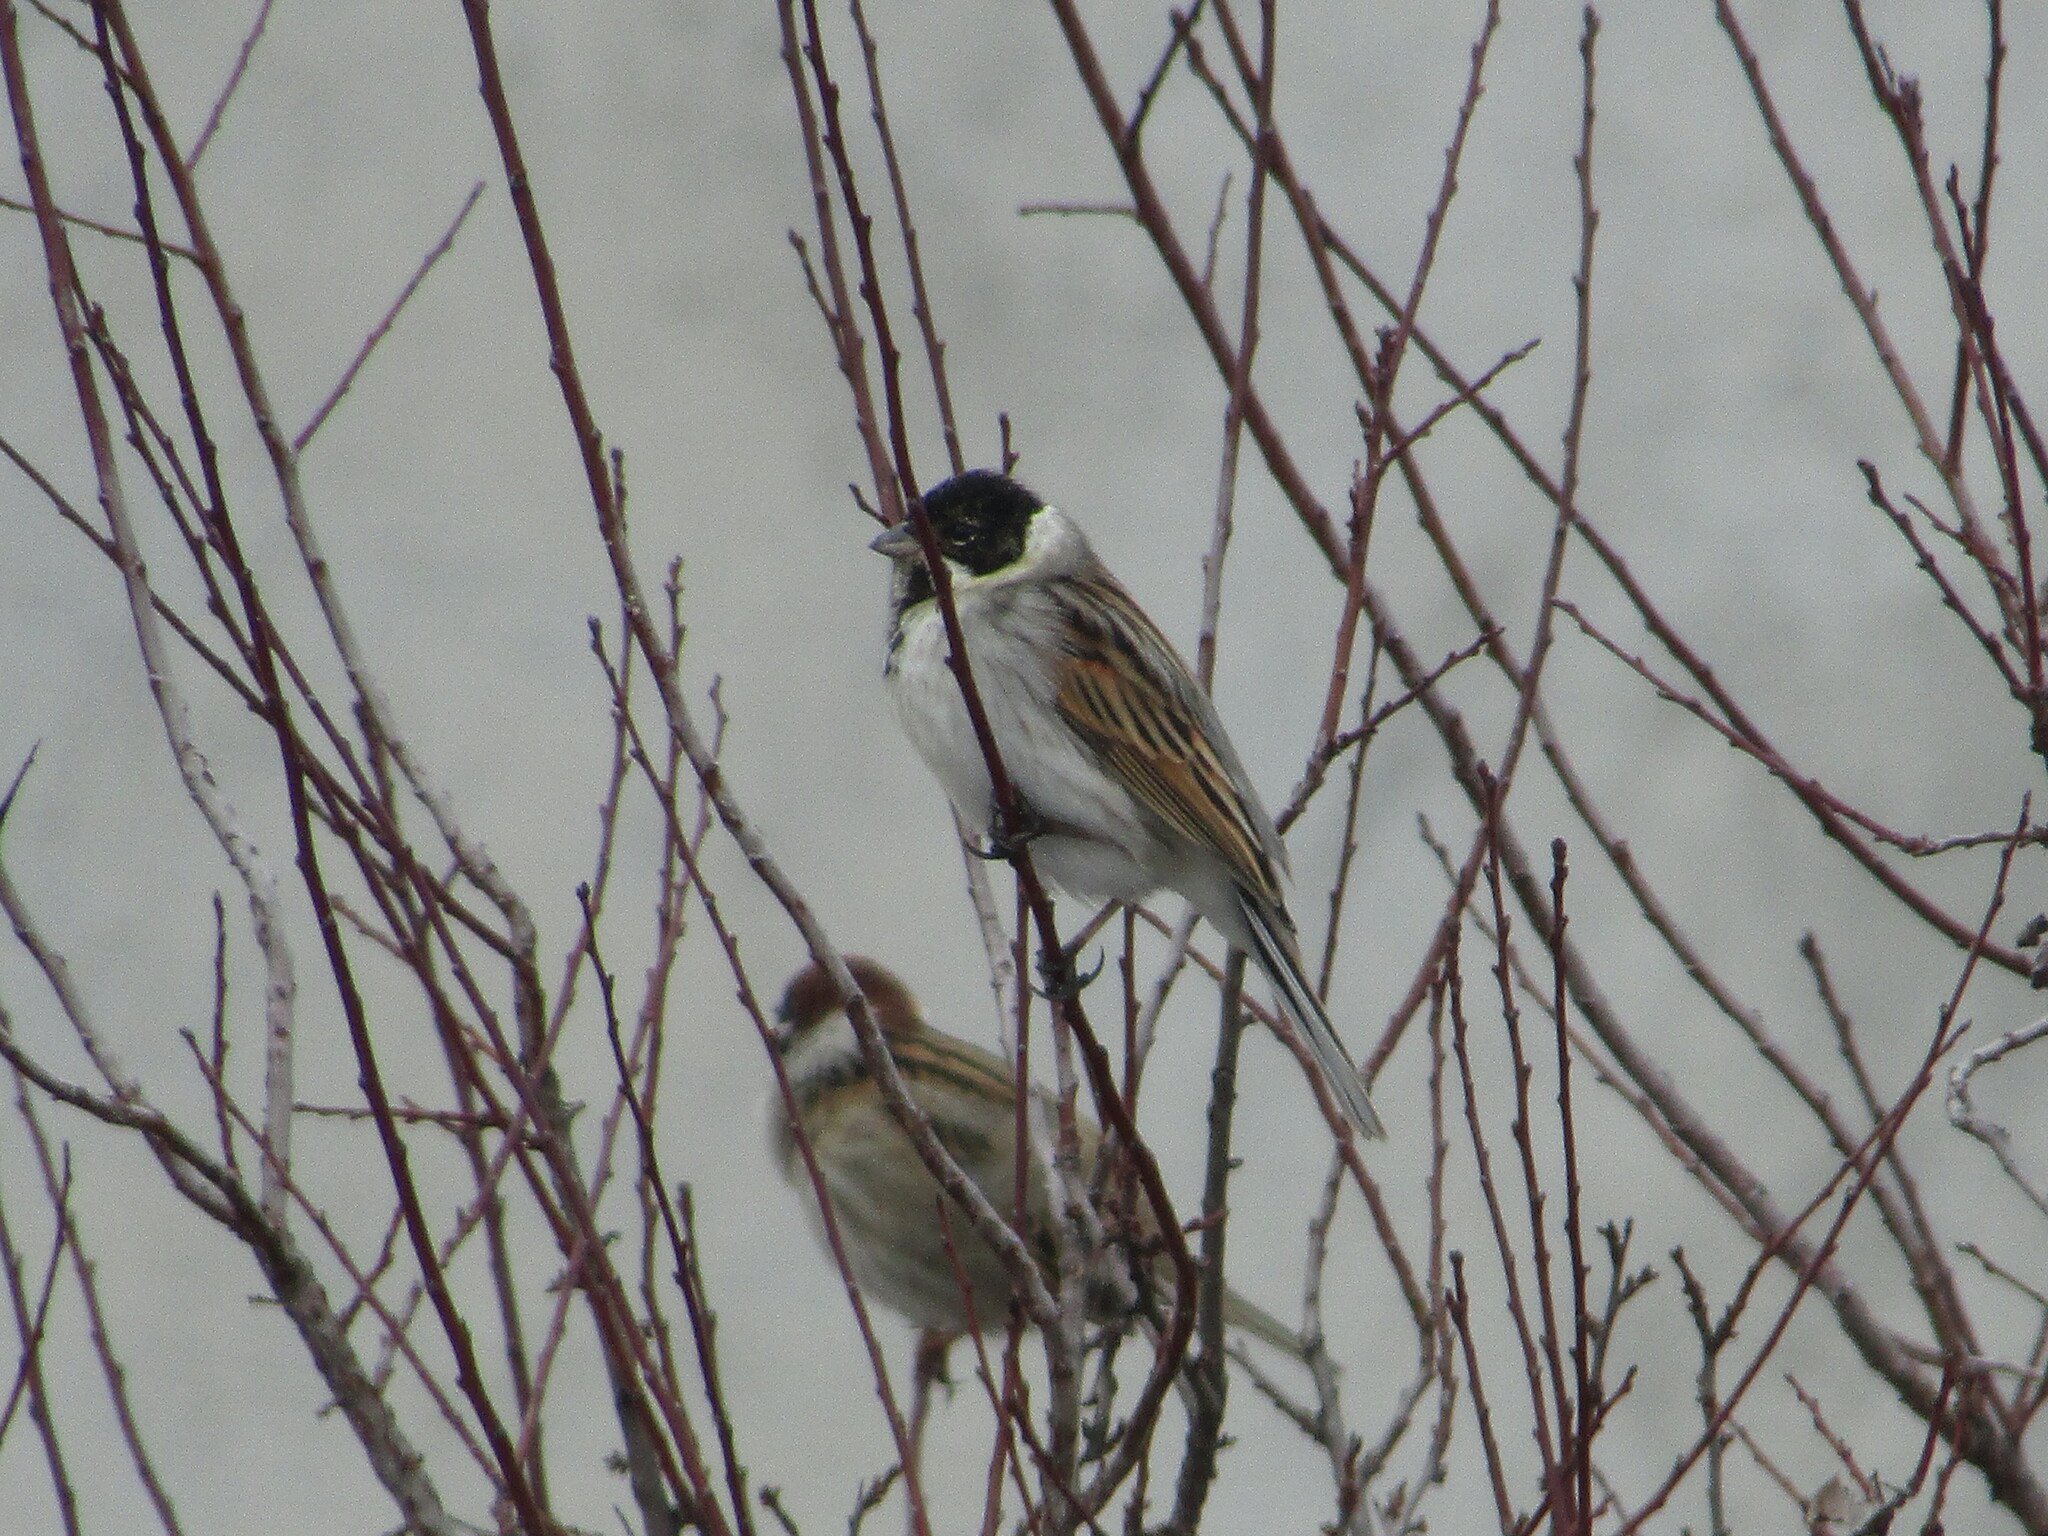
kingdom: Animalia
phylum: Chordata
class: Aves
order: Passeriformes
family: Emberizidae
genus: Emberiza
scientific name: Emberiza schoeniclus
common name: Reed bunting
